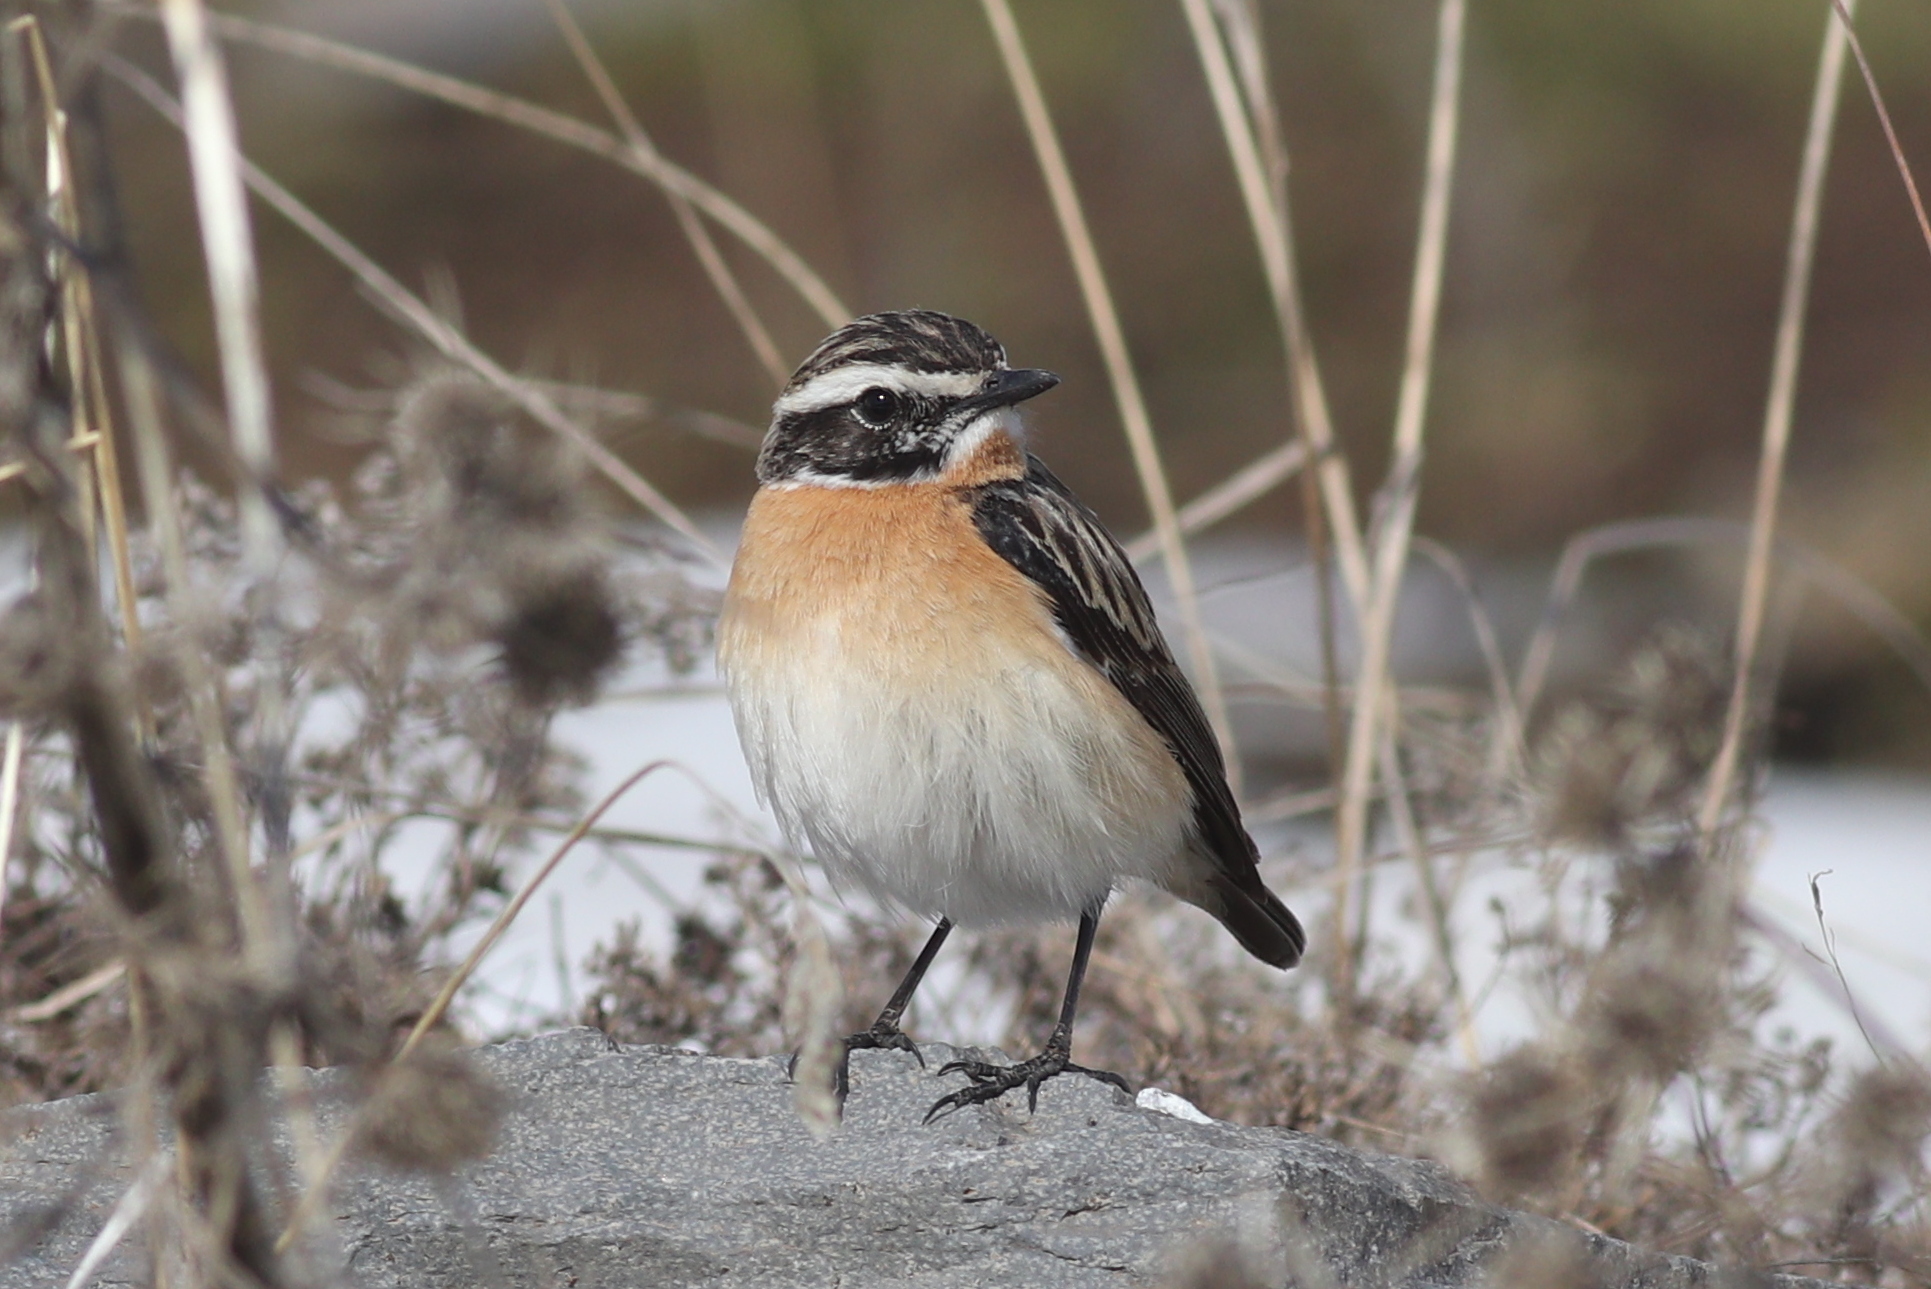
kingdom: Animalia
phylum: Chordata
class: Aves
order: Passeriformes
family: Muscicapidae
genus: Saxicola
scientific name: Saxicola rubetra
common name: Whinchat
